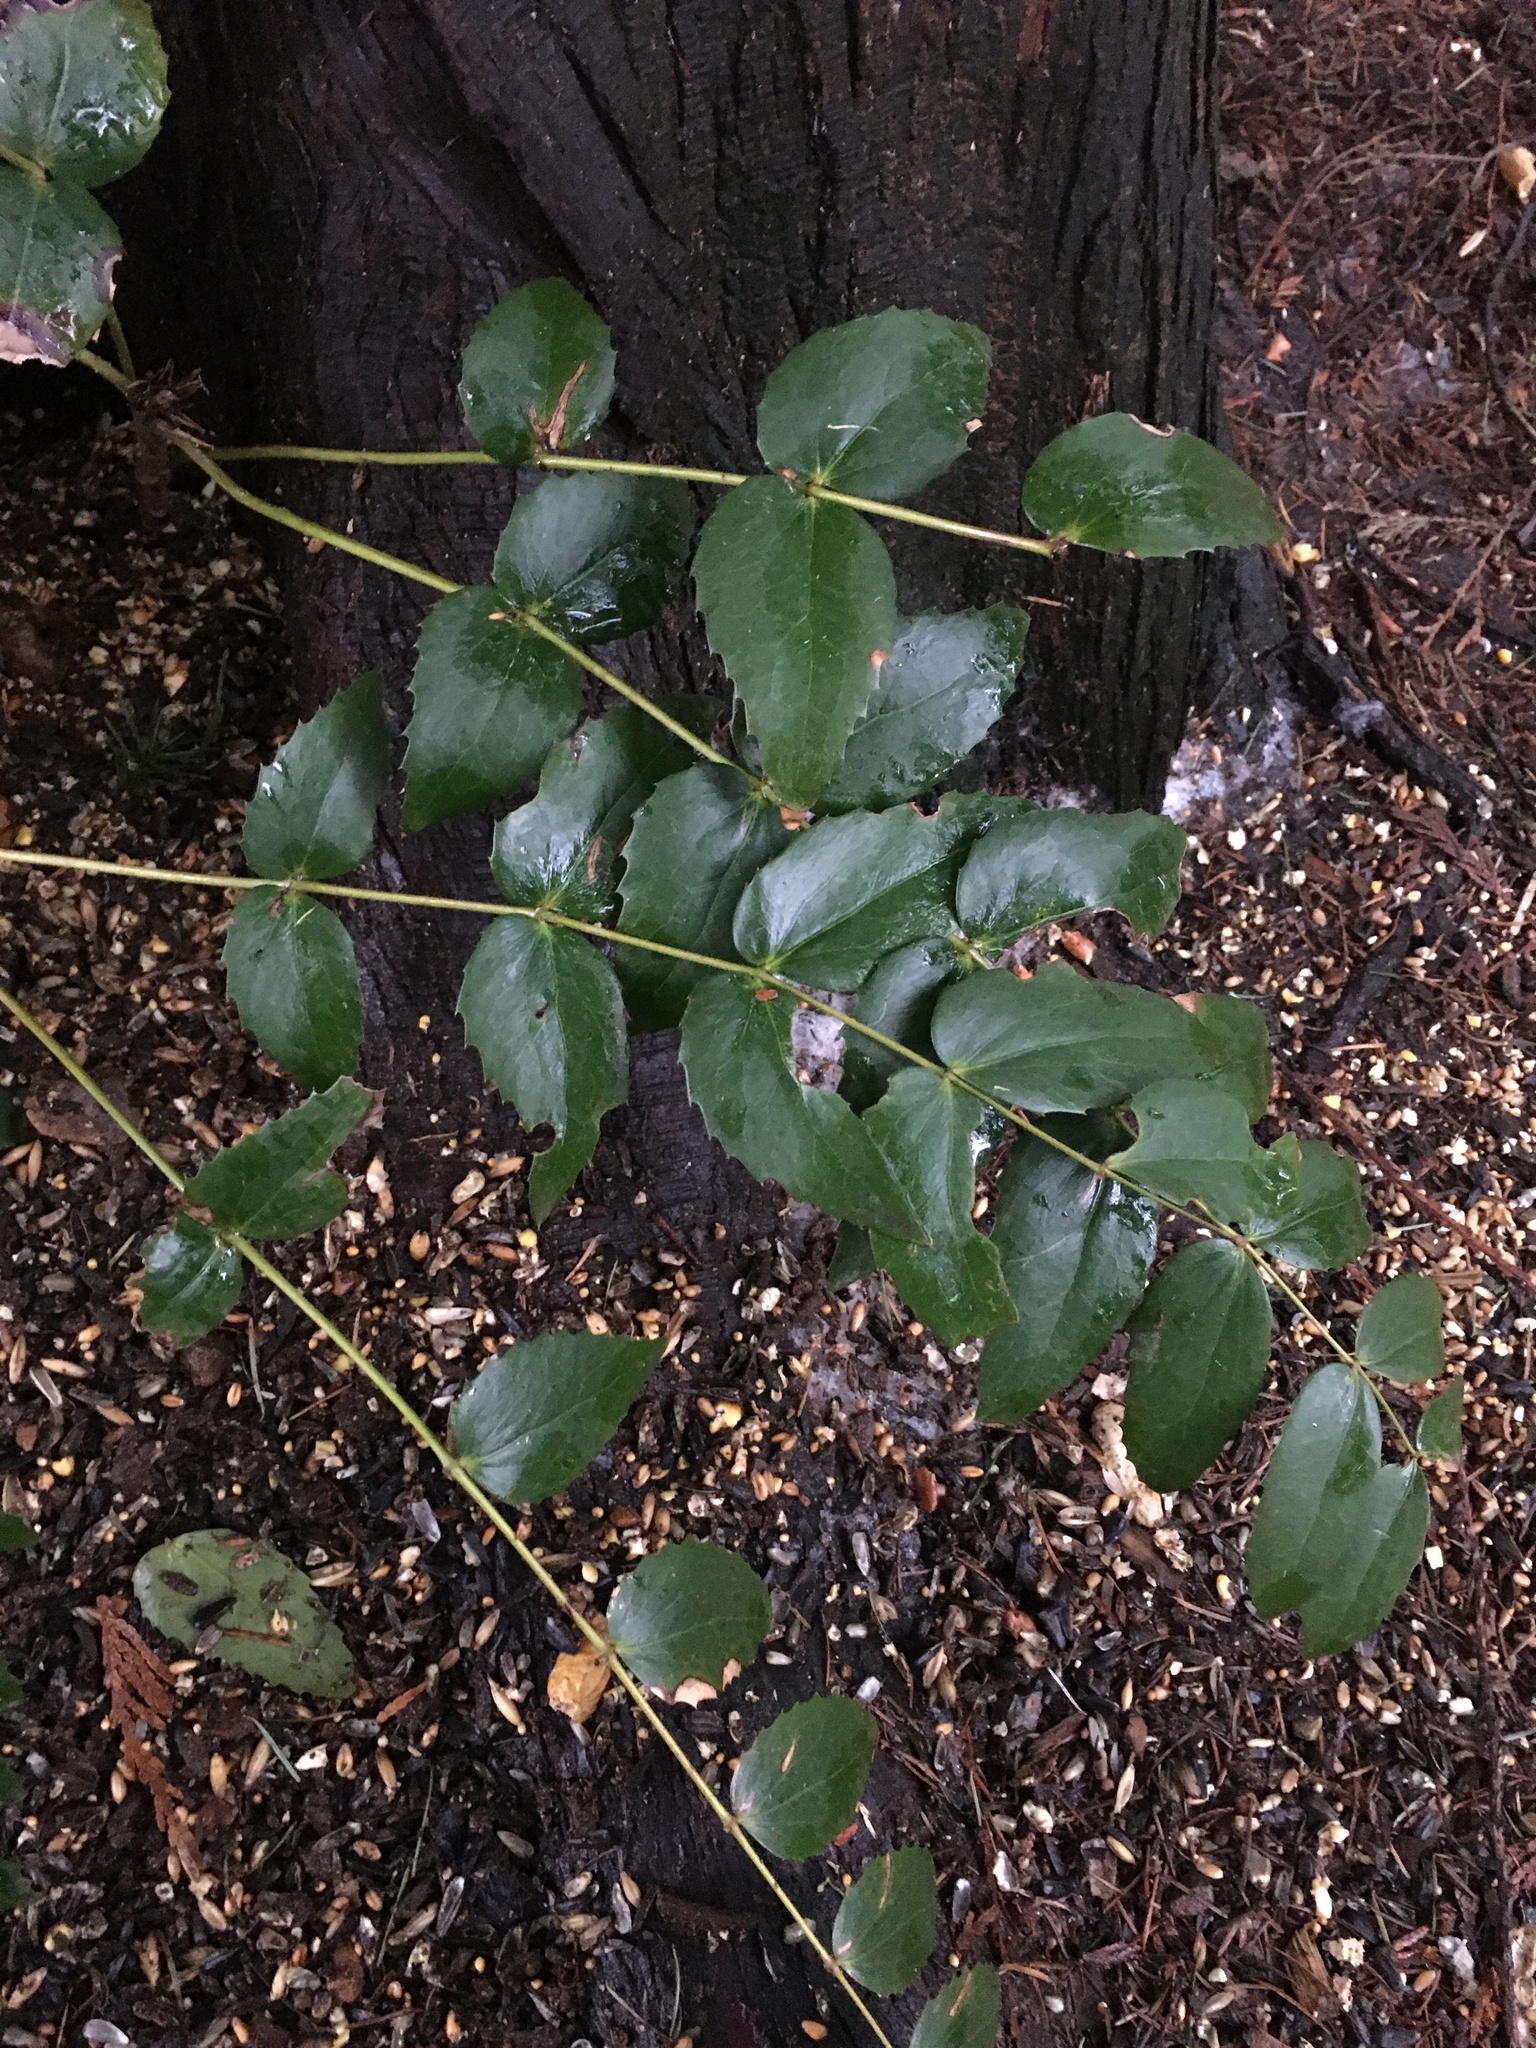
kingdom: Plantae
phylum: Tracheophyta
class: Magnoliopsida
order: Ranunculales
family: Berberidaceae
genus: Mahonia
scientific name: Mahonia nervosa
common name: Cascade oregon-grape
